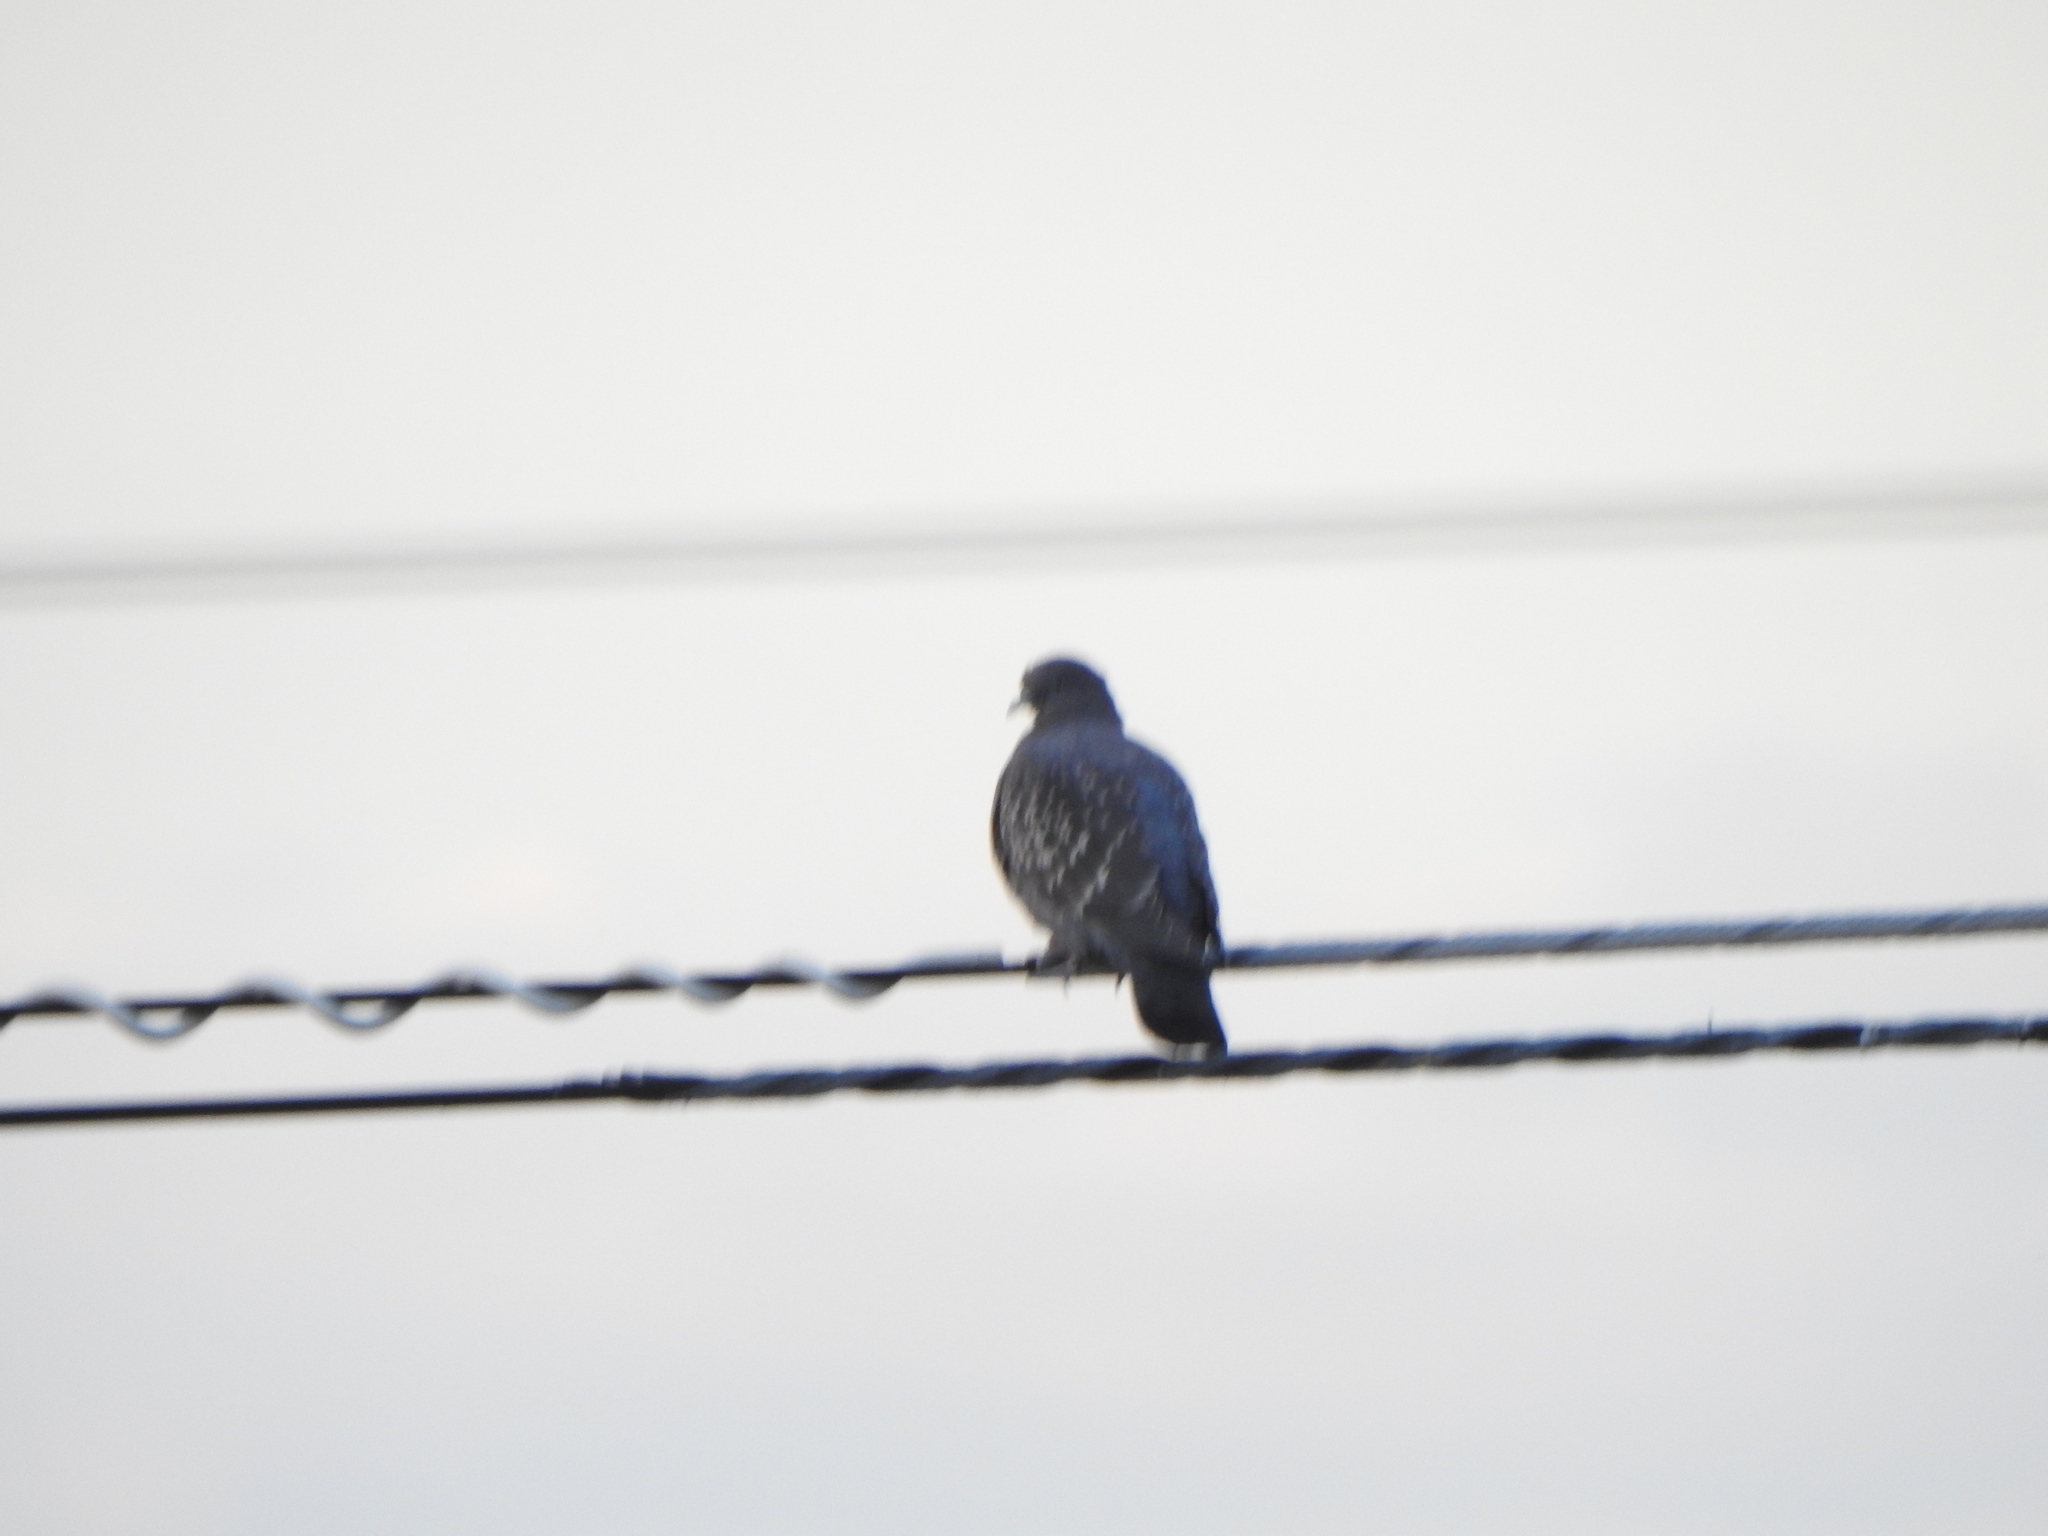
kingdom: Animalia
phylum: Chordata
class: Aves
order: Columbiformes
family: Columbidae
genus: Patagioenas
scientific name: Patagioenas maculosa
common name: Spot-winged pigeon
